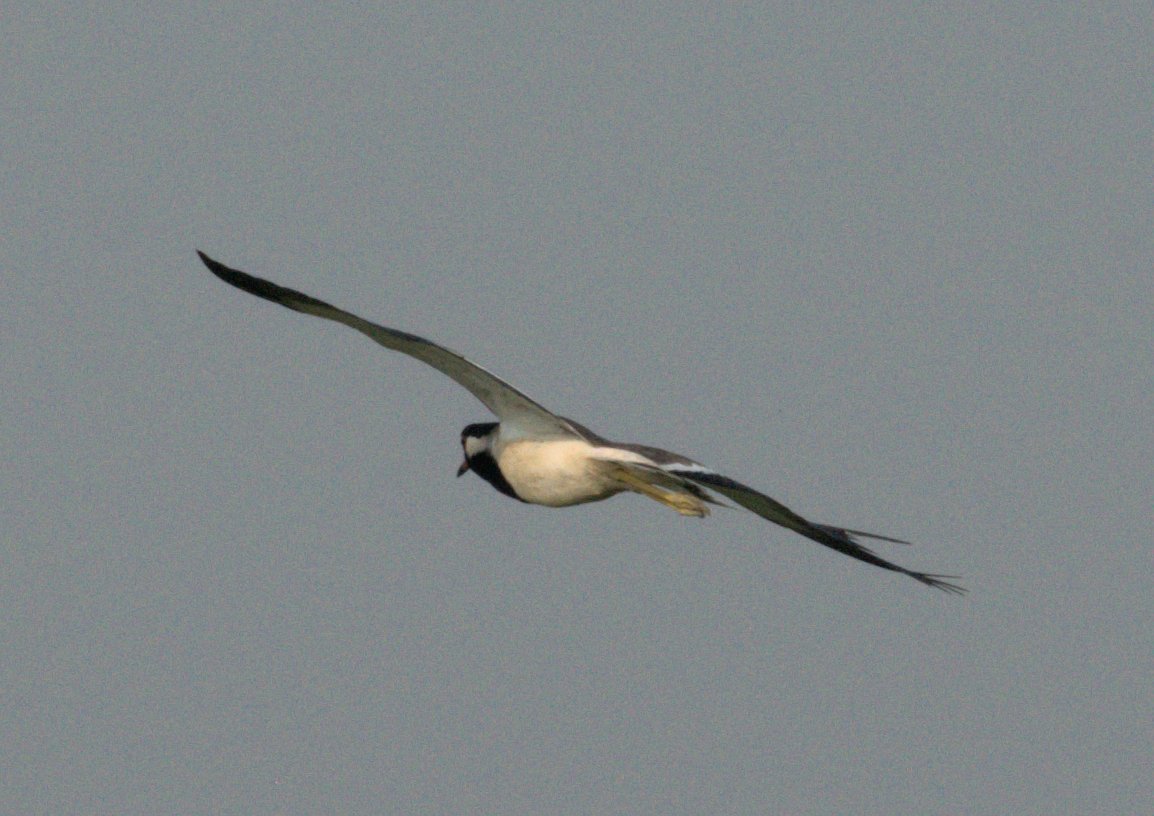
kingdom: Animalia
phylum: Chordata
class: Aves
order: Charadriiformes
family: Charadriidae
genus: Vanellus
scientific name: Vanellus indicus
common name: Red-wattled lapwing
